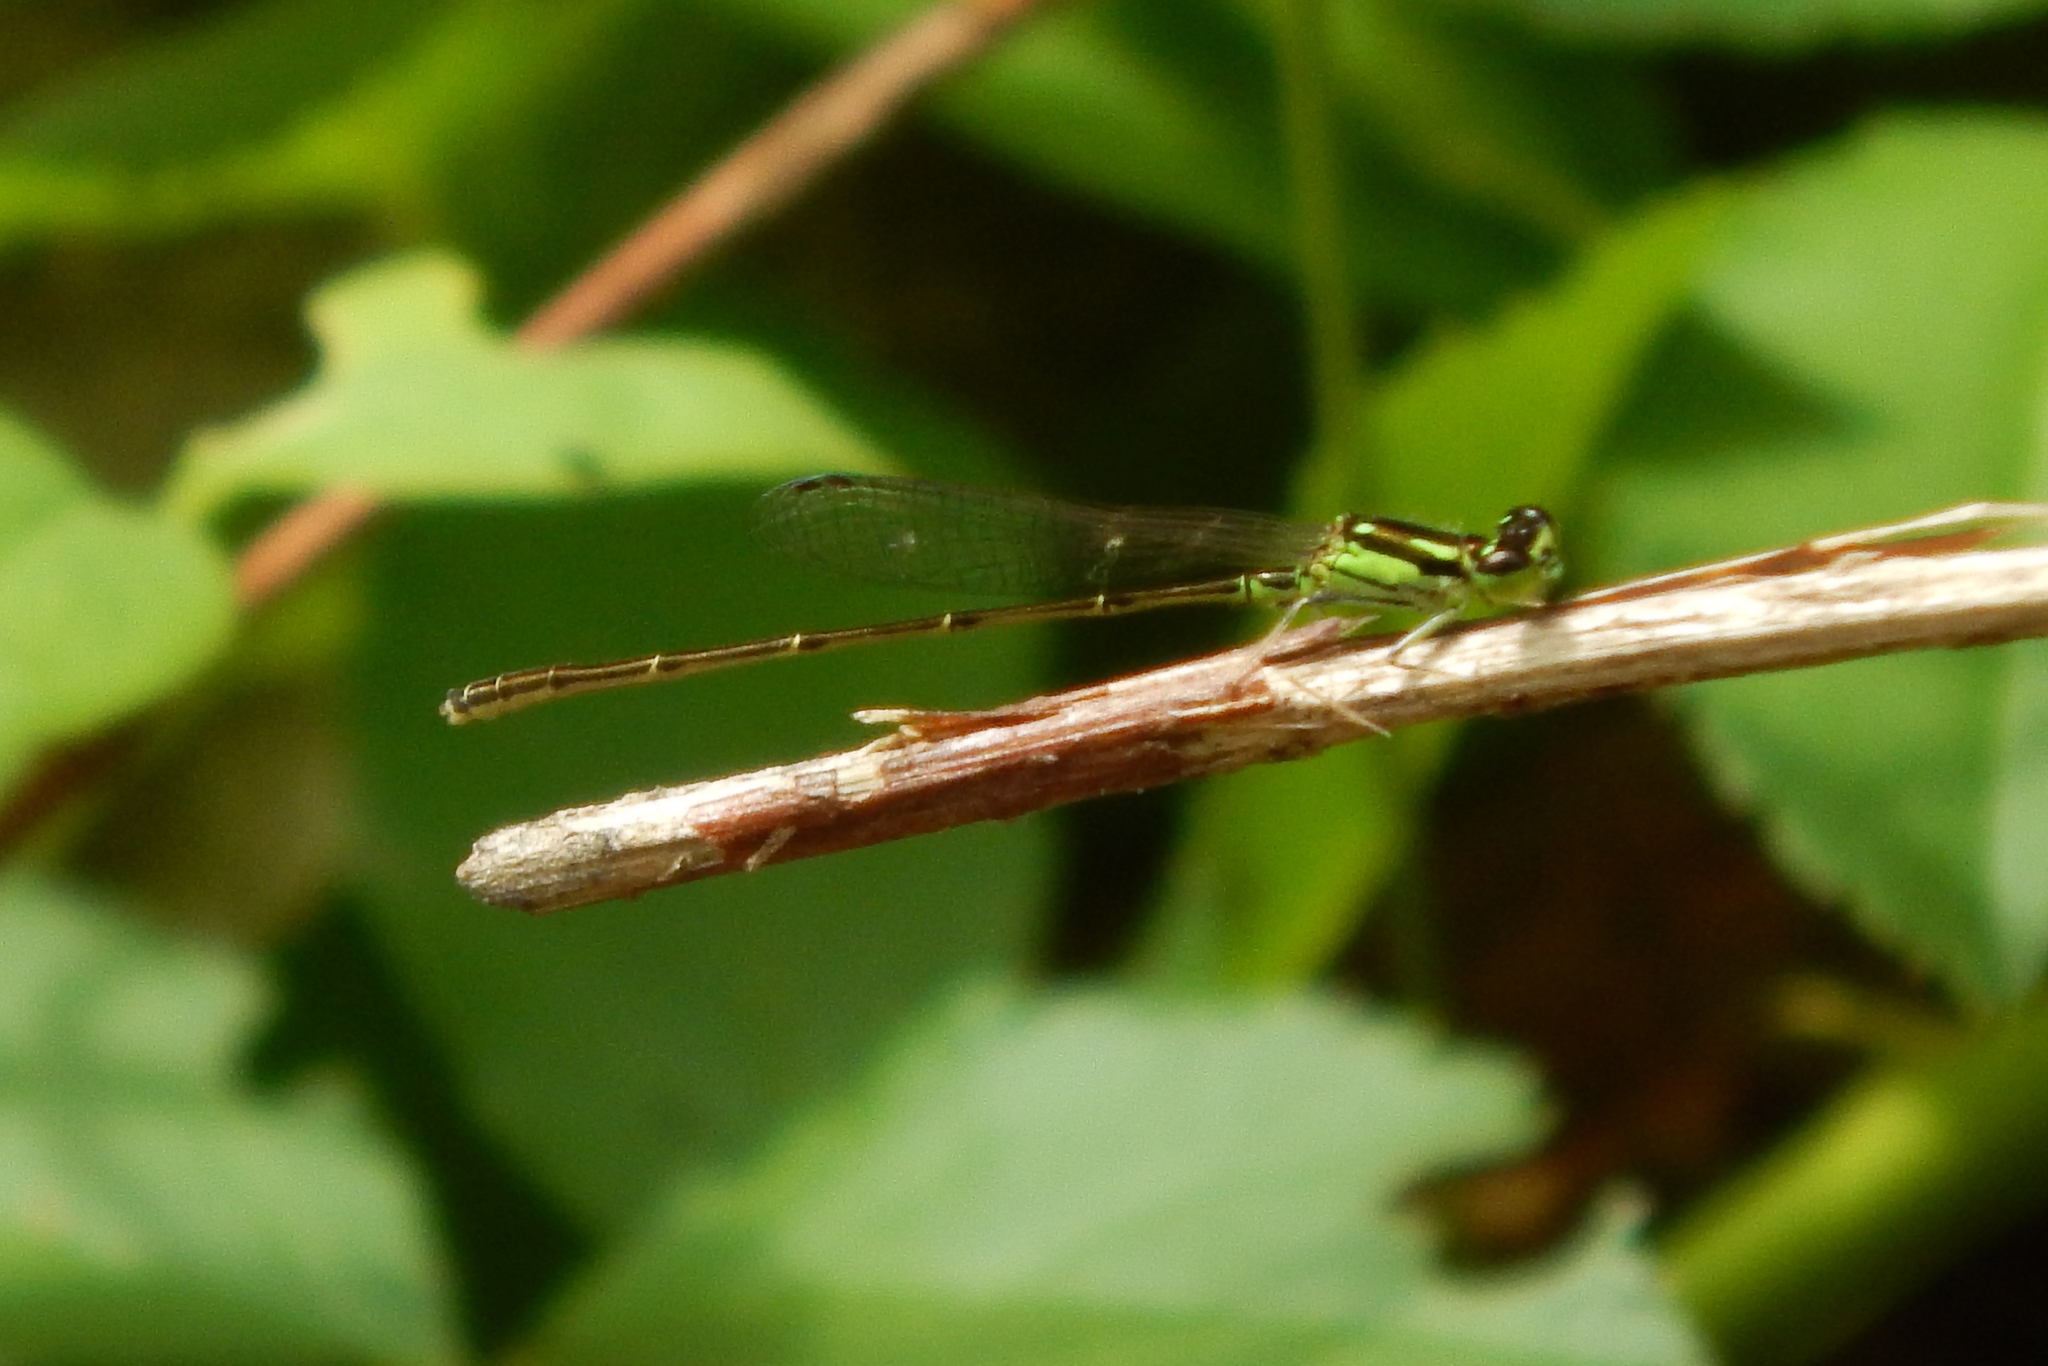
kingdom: Animalia
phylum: Arthropoda
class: Insecta
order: Odonata
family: Coenagrionidae
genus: Ischnura
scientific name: Ischnura posita
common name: Fragile forktail
